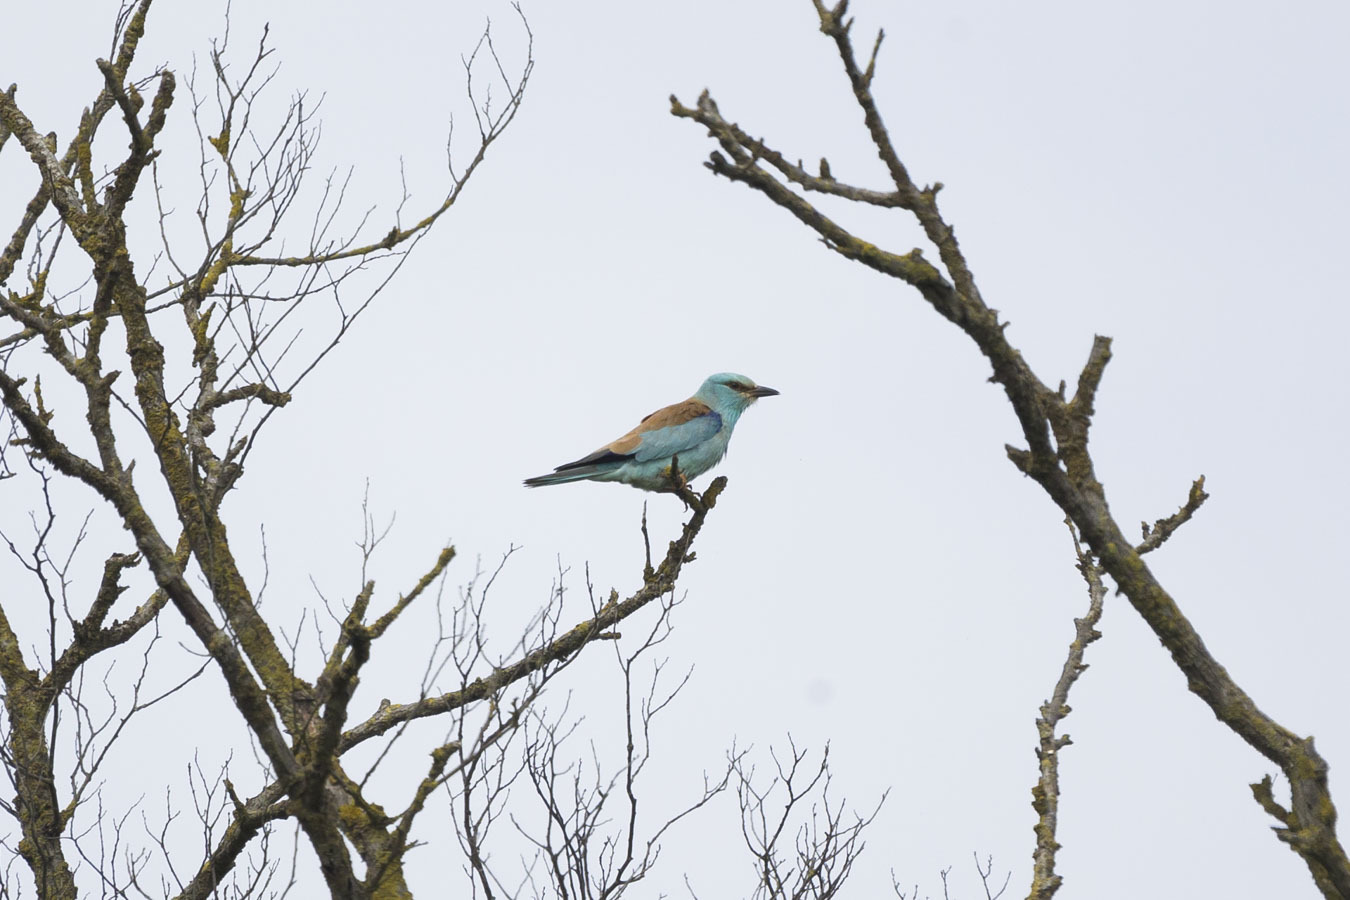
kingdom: Animalia
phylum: Chordata
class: Aves
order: Coraciiformes
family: Coraciidae
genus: Coracias
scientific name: Coracias garrulus
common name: European roller
